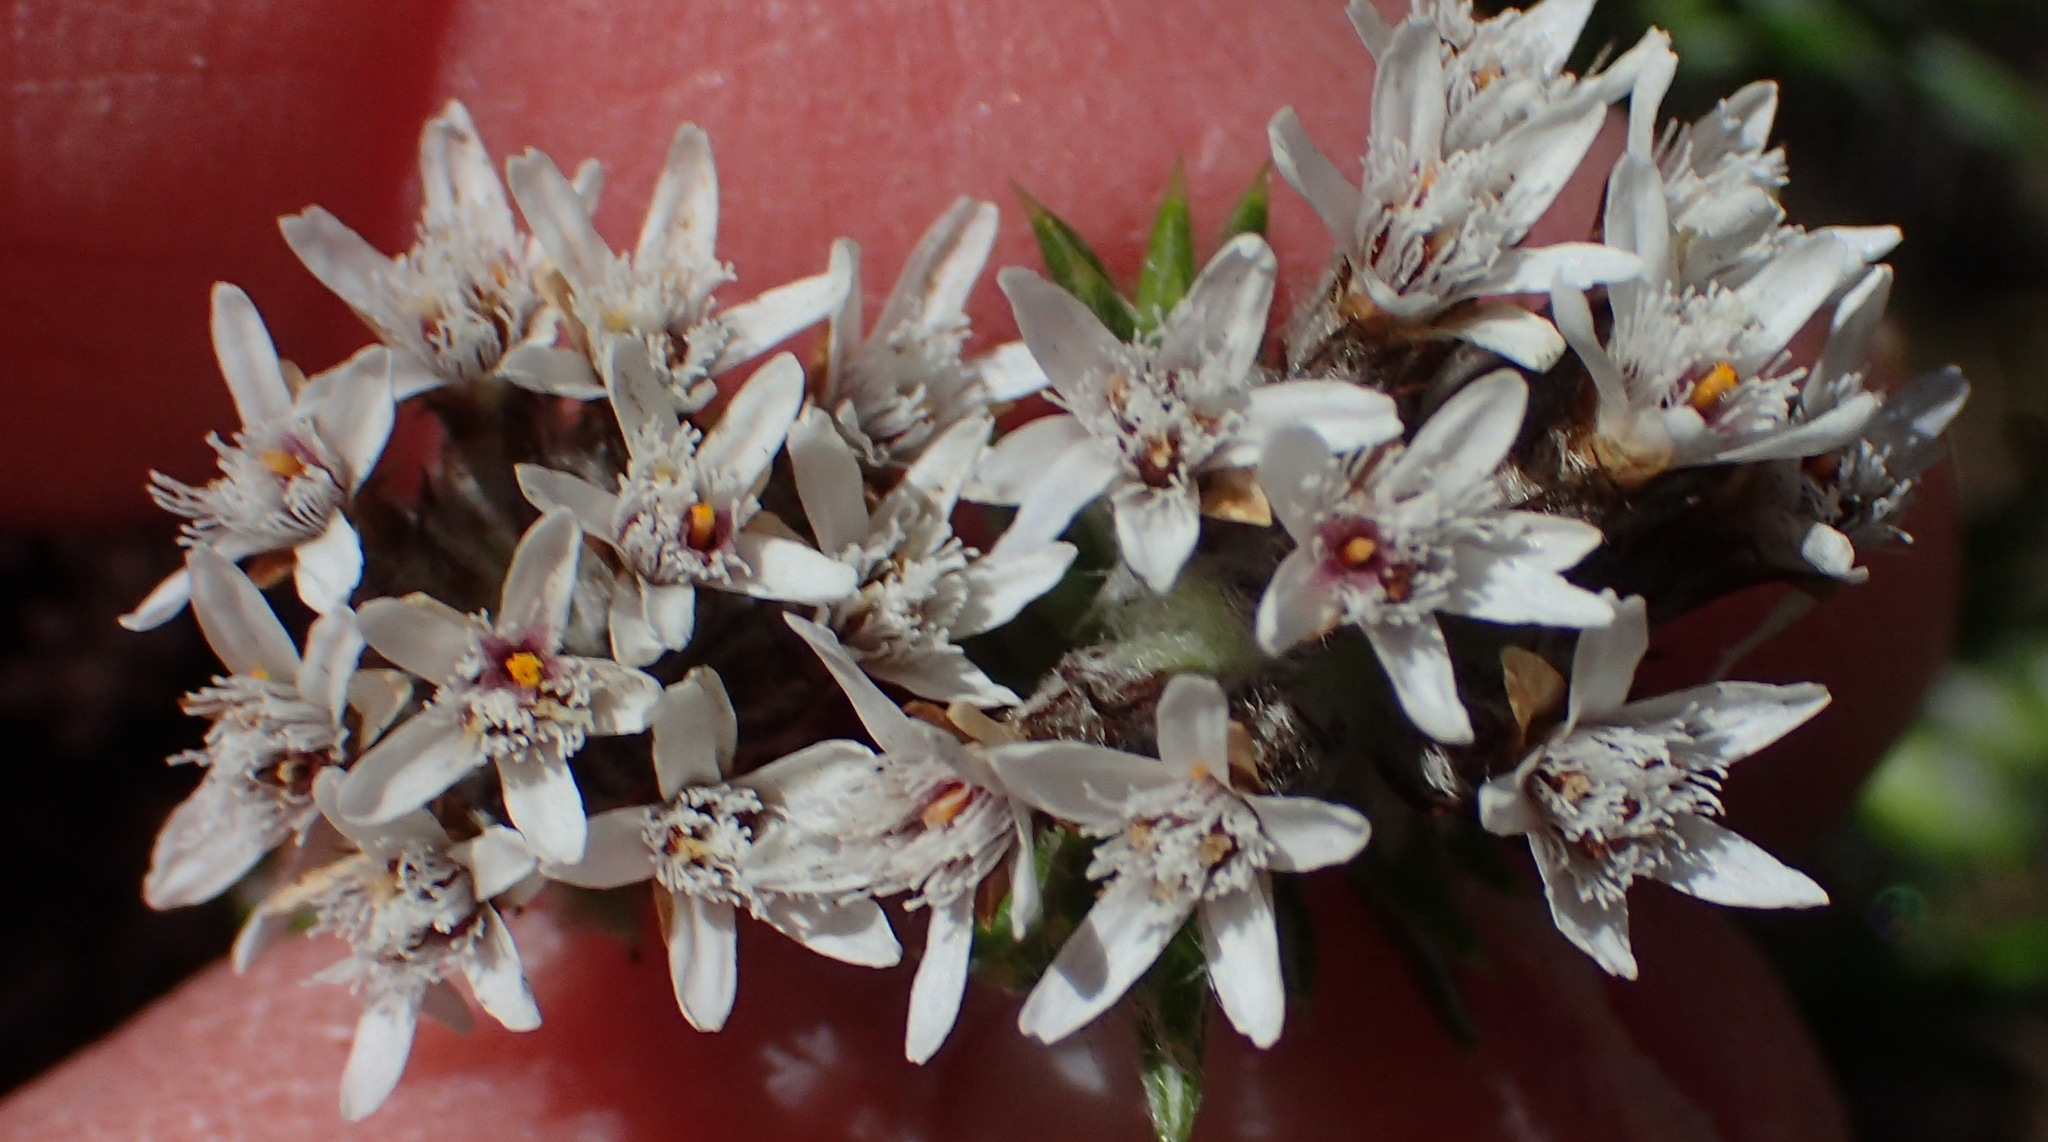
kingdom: Plantae
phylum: Tracheophyta
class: Magnoliopsida
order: Asterales
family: Asteraceae
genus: Metalasia
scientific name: Metalasia strictifolia
